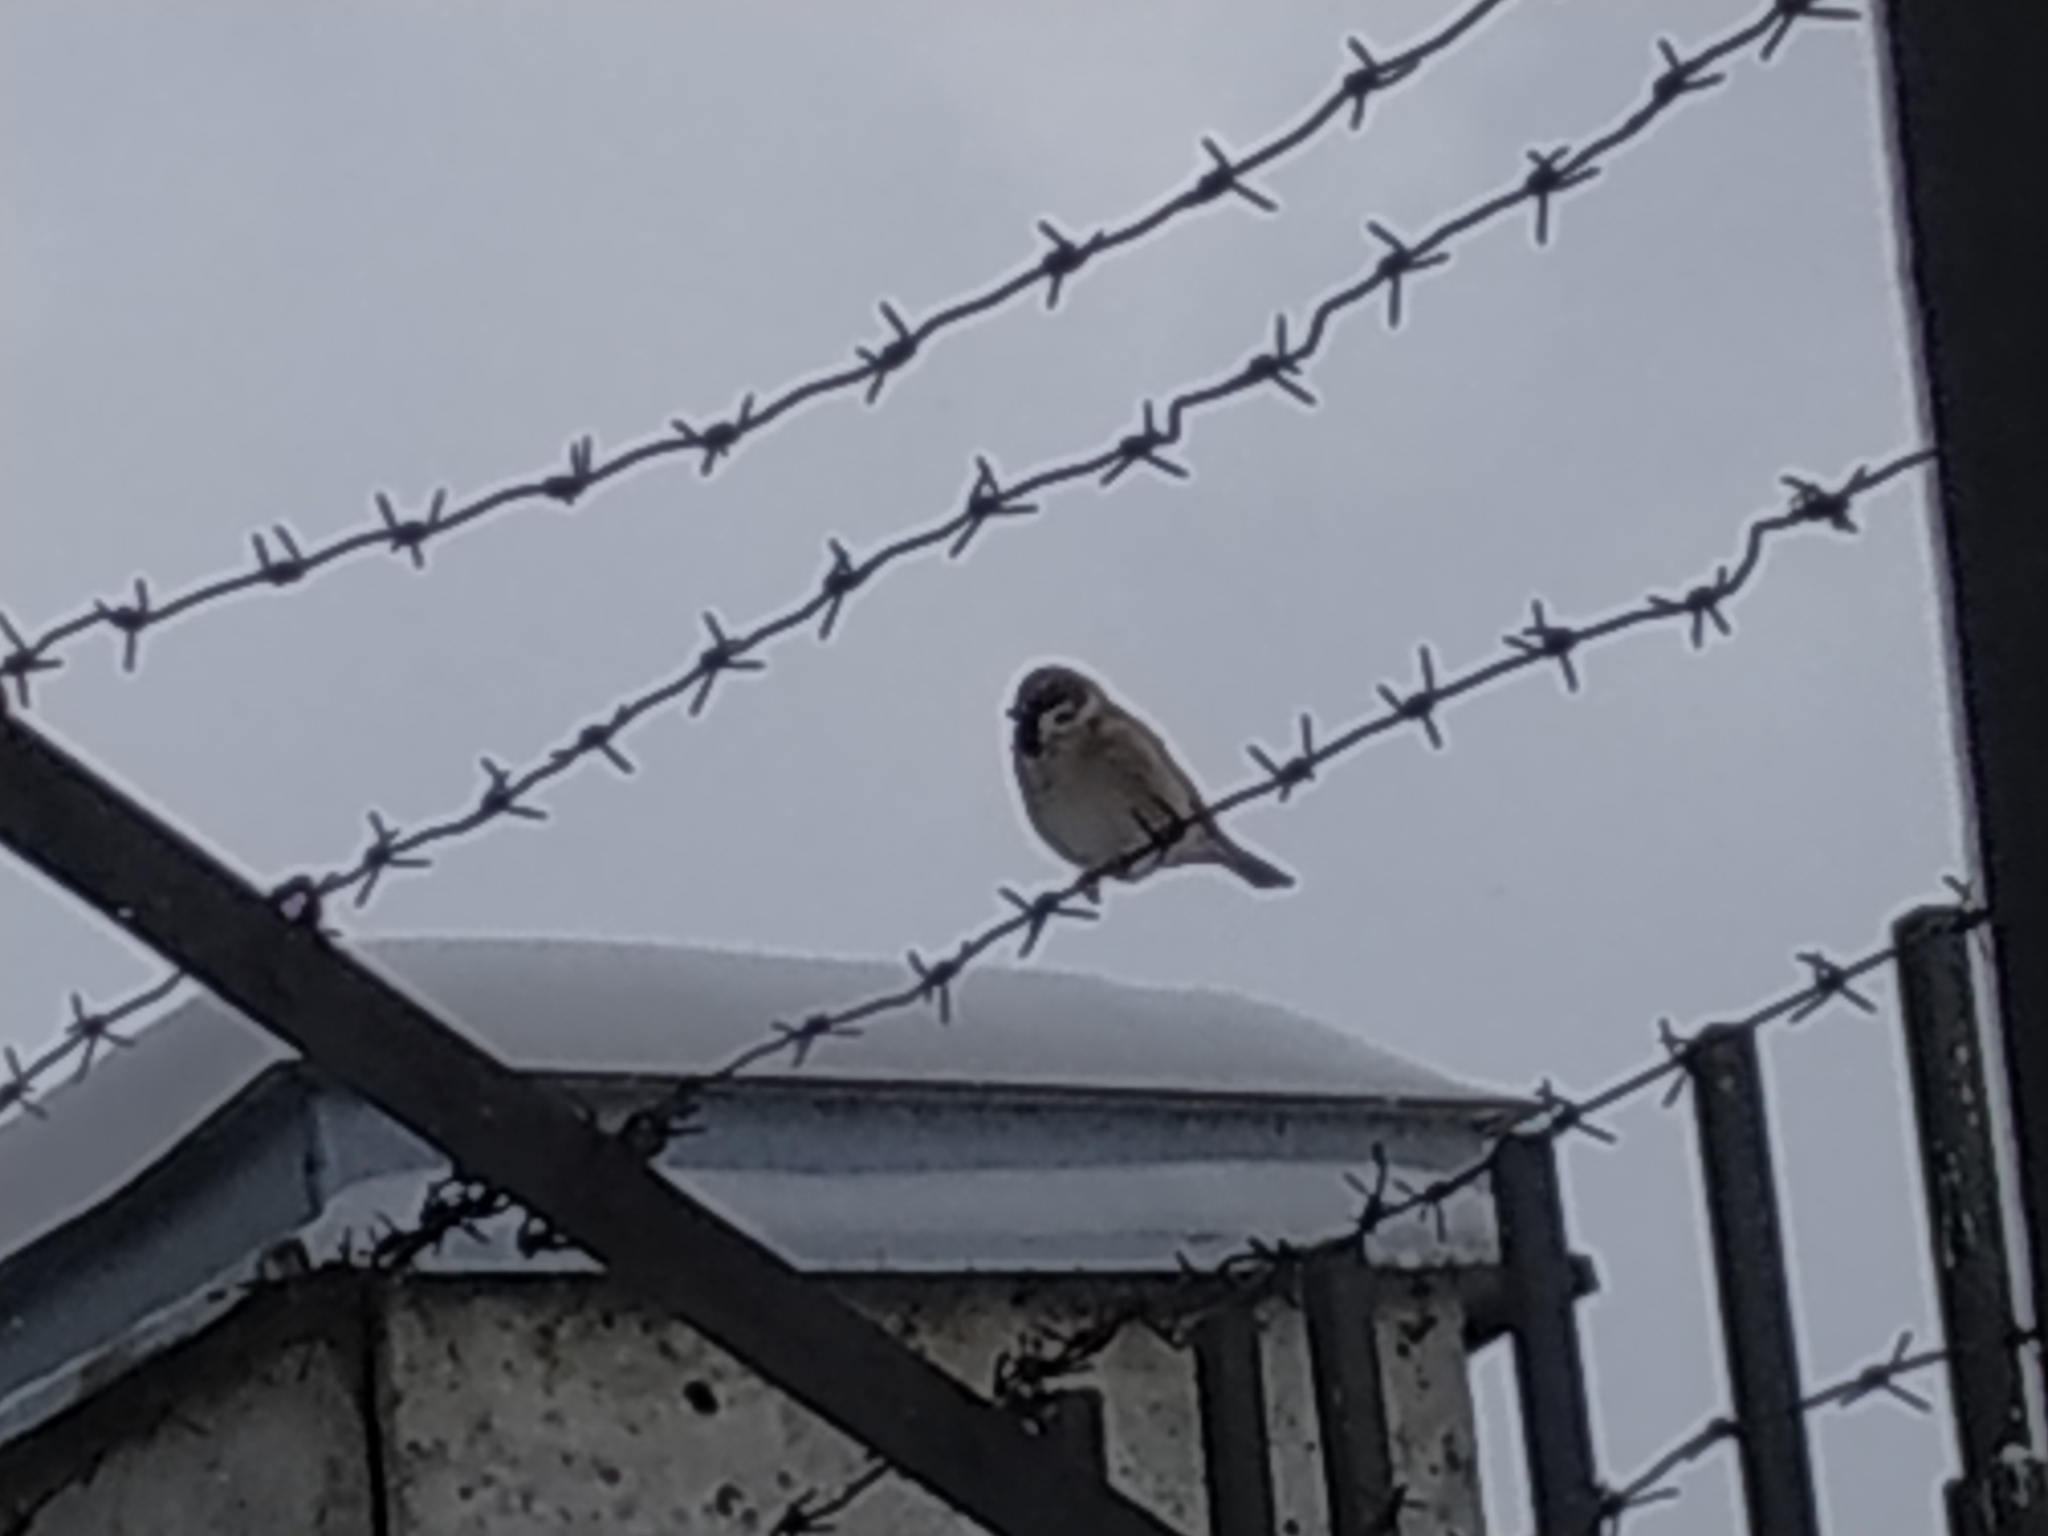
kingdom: Animalia
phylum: Chordata
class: Aves
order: Passeriformes
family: Passeridae
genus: Passer
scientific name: Passer montanus
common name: Eurasian tree sparrow
